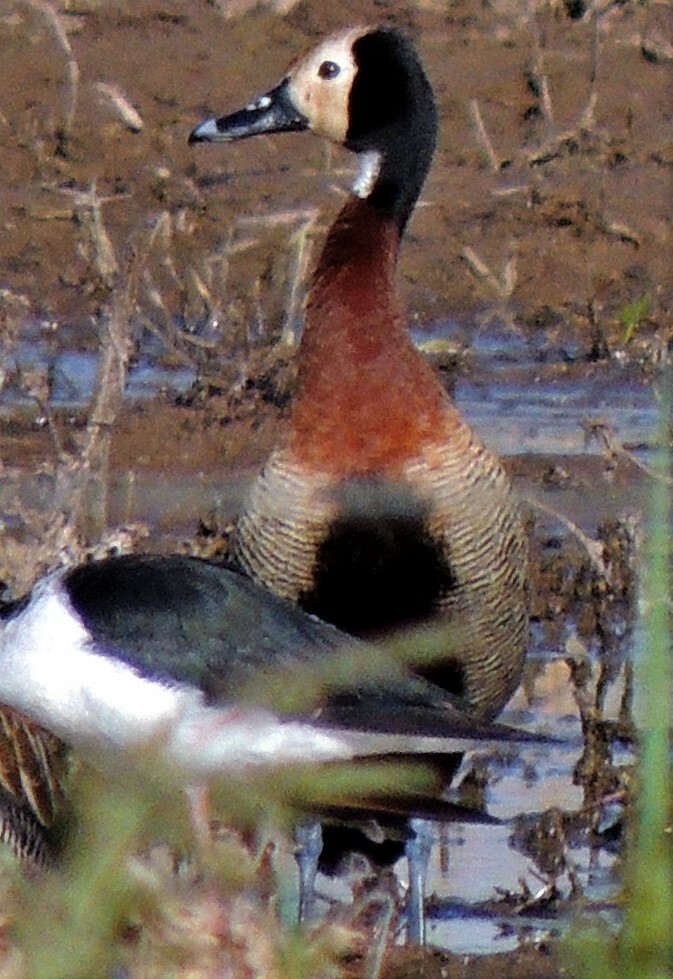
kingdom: Animalia
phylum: Chordata
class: Aves
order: Anseriformes
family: Anatidae
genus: Dendrocygna
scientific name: Dendrocygna viduata
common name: White-faced whistling duck
